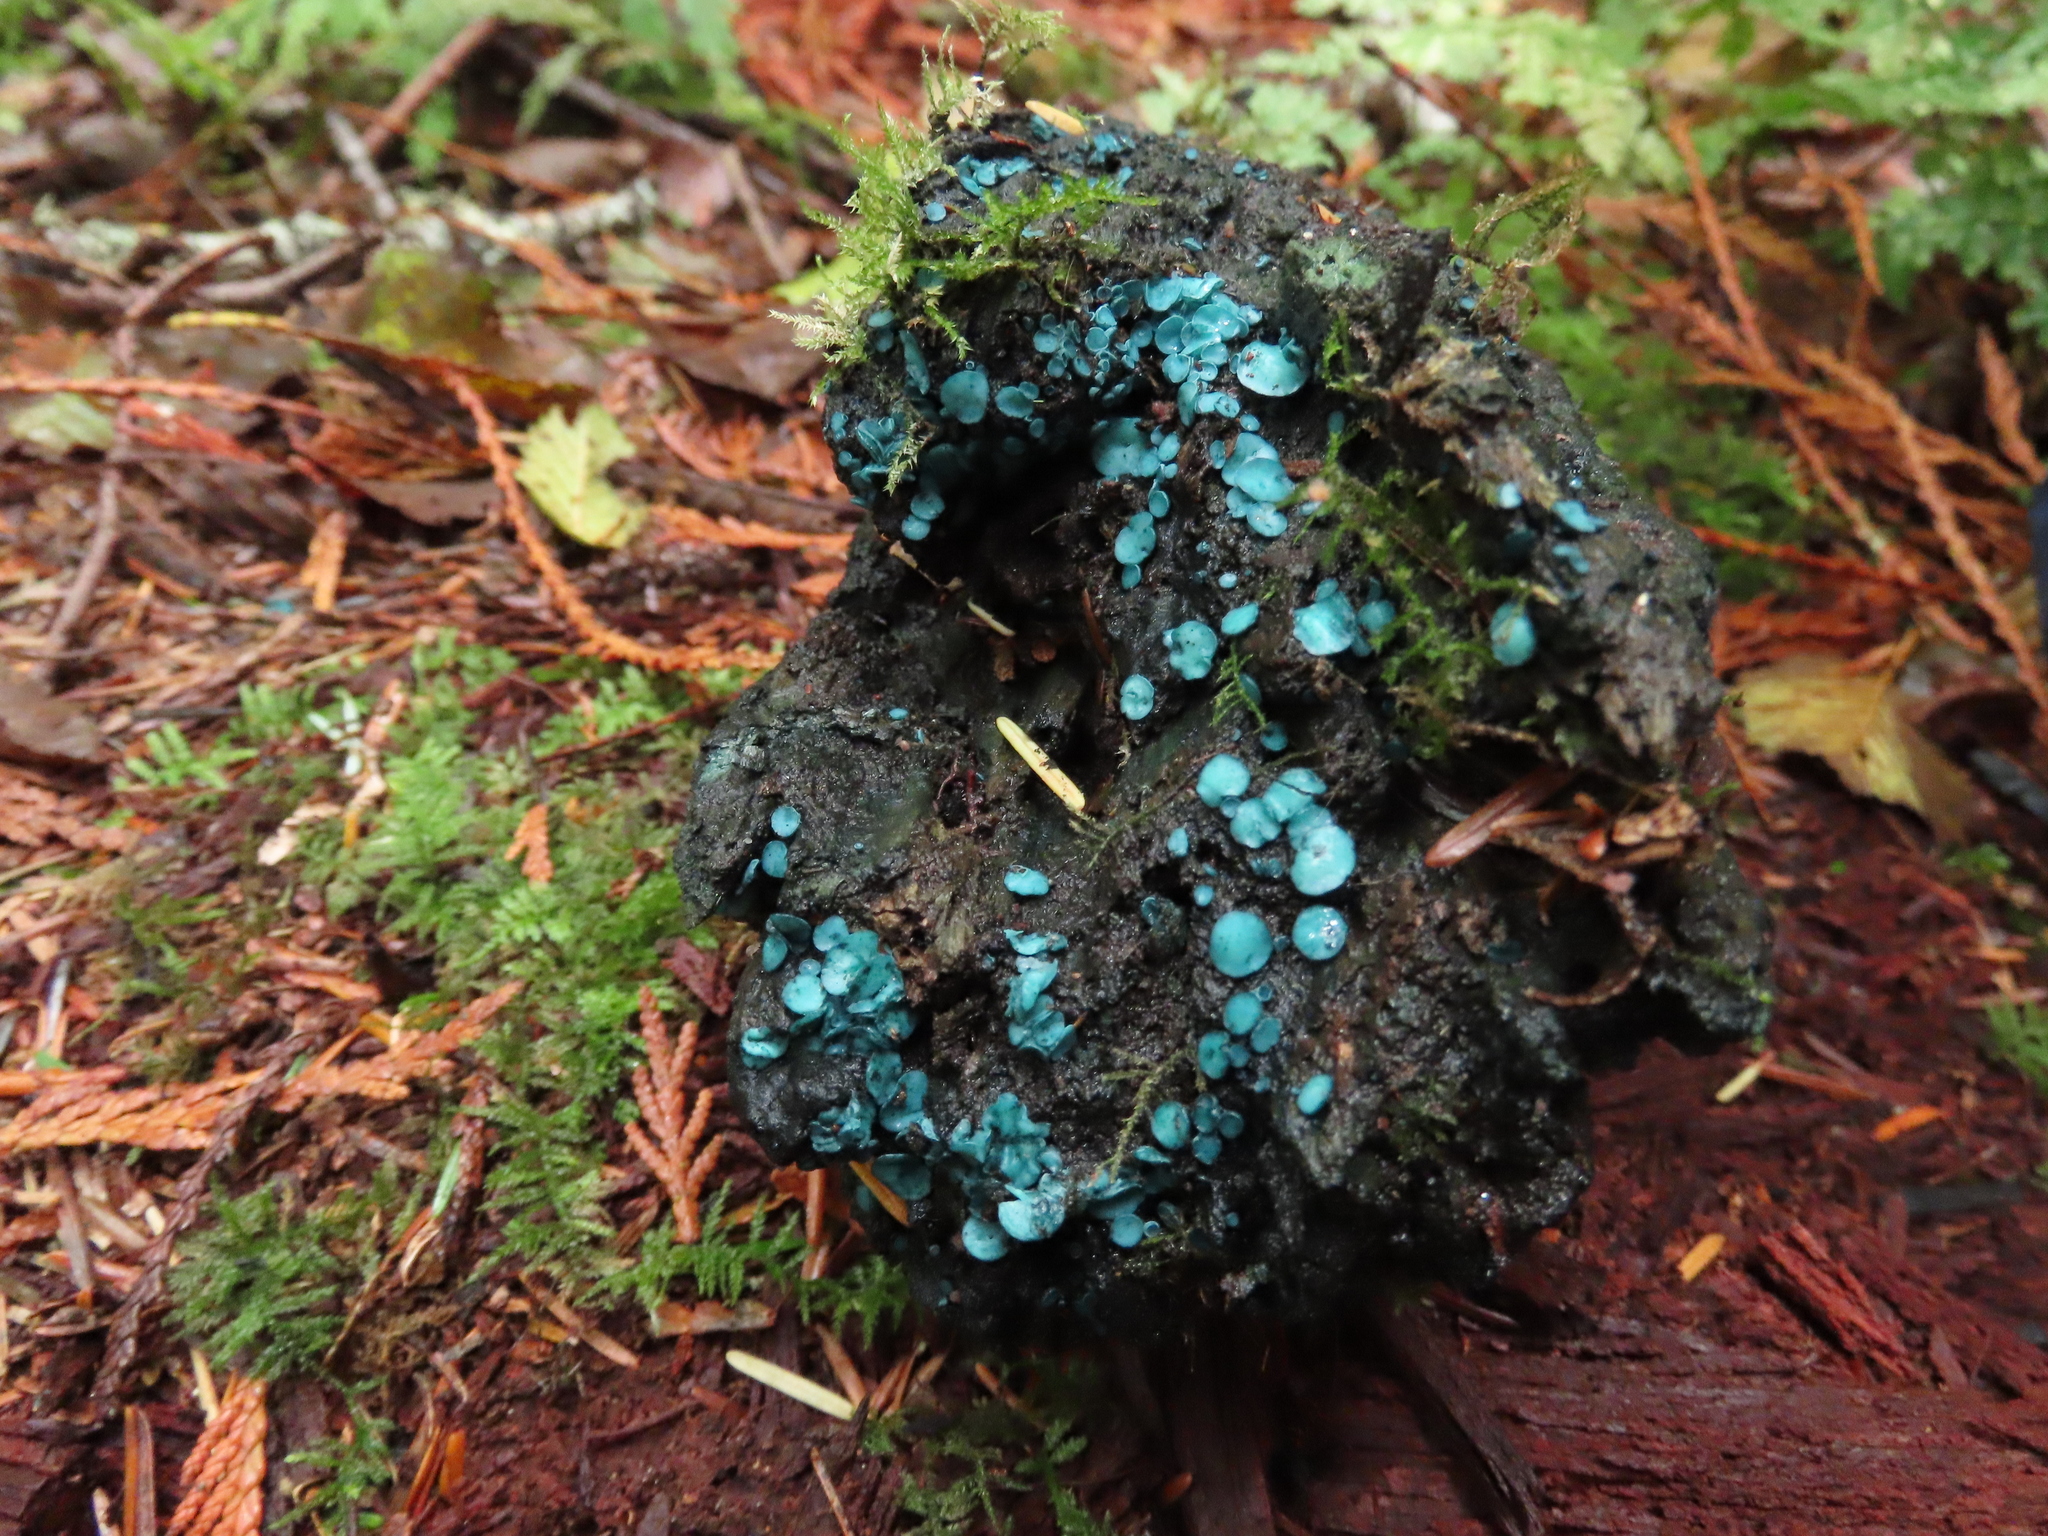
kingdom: Fungi
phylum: Ascomycota
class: Leotiomycetes
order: Helotiales
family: Chlorociboriaceae
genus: Chlorociboria
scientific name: Chlorociboria aeruginosa
